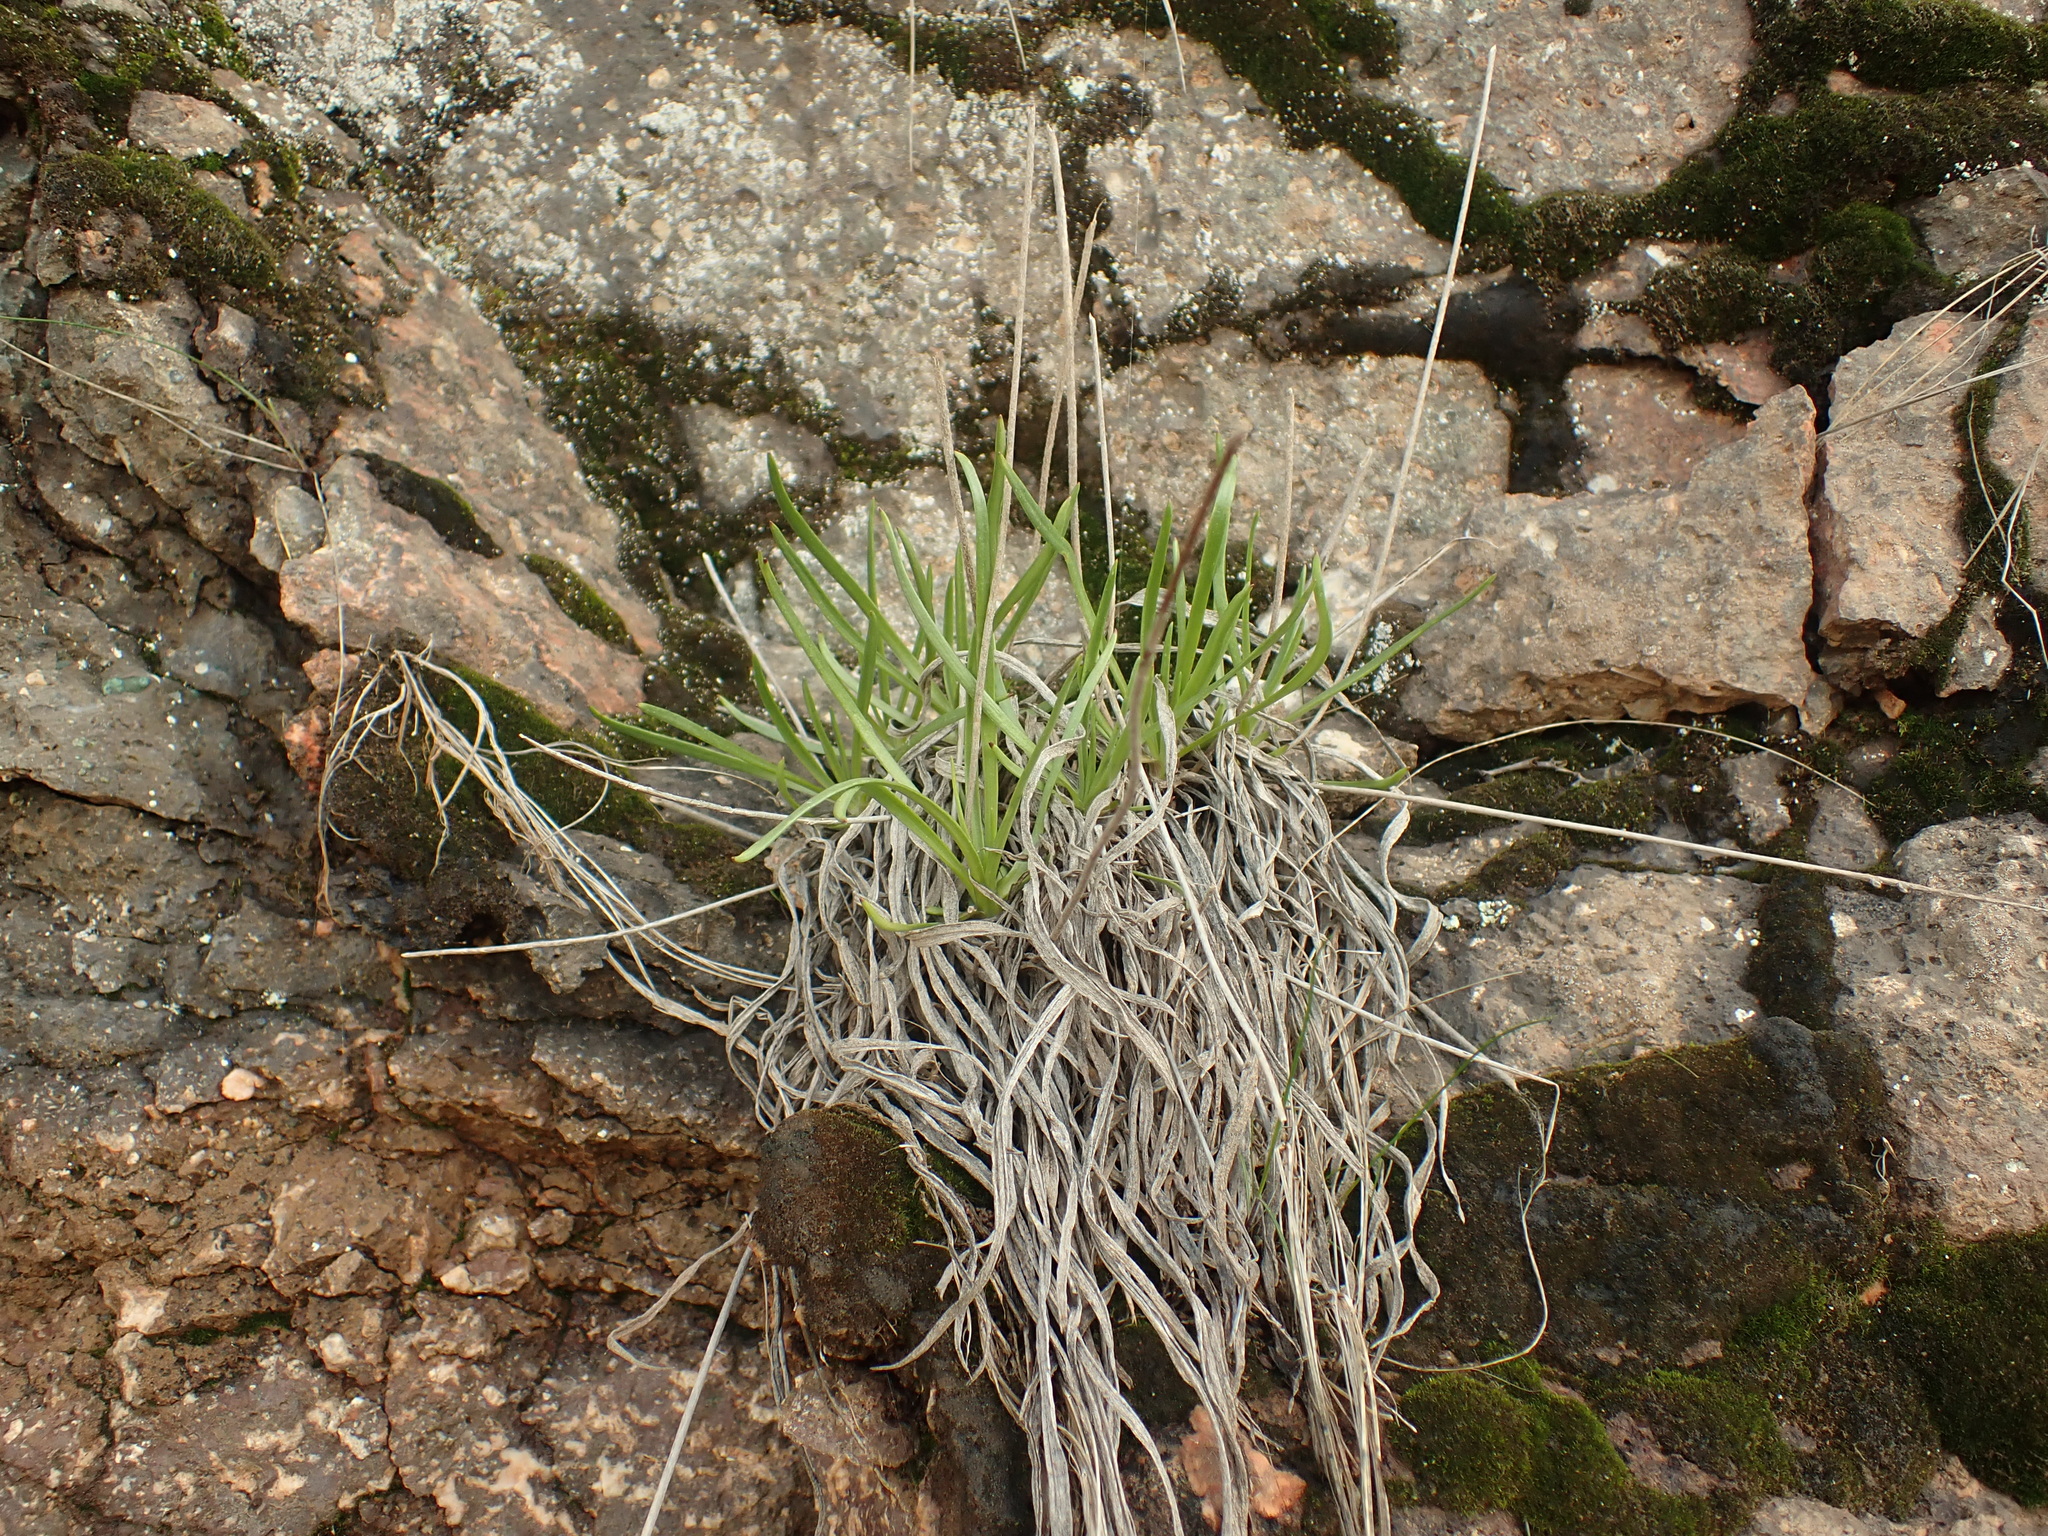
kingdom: Plantae
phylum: Tracheophyta
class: Magnoliopsida
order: Lamiales
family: Plantaginaceae
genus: Plantago
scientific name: Plantago maritima
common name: Sea plantain
